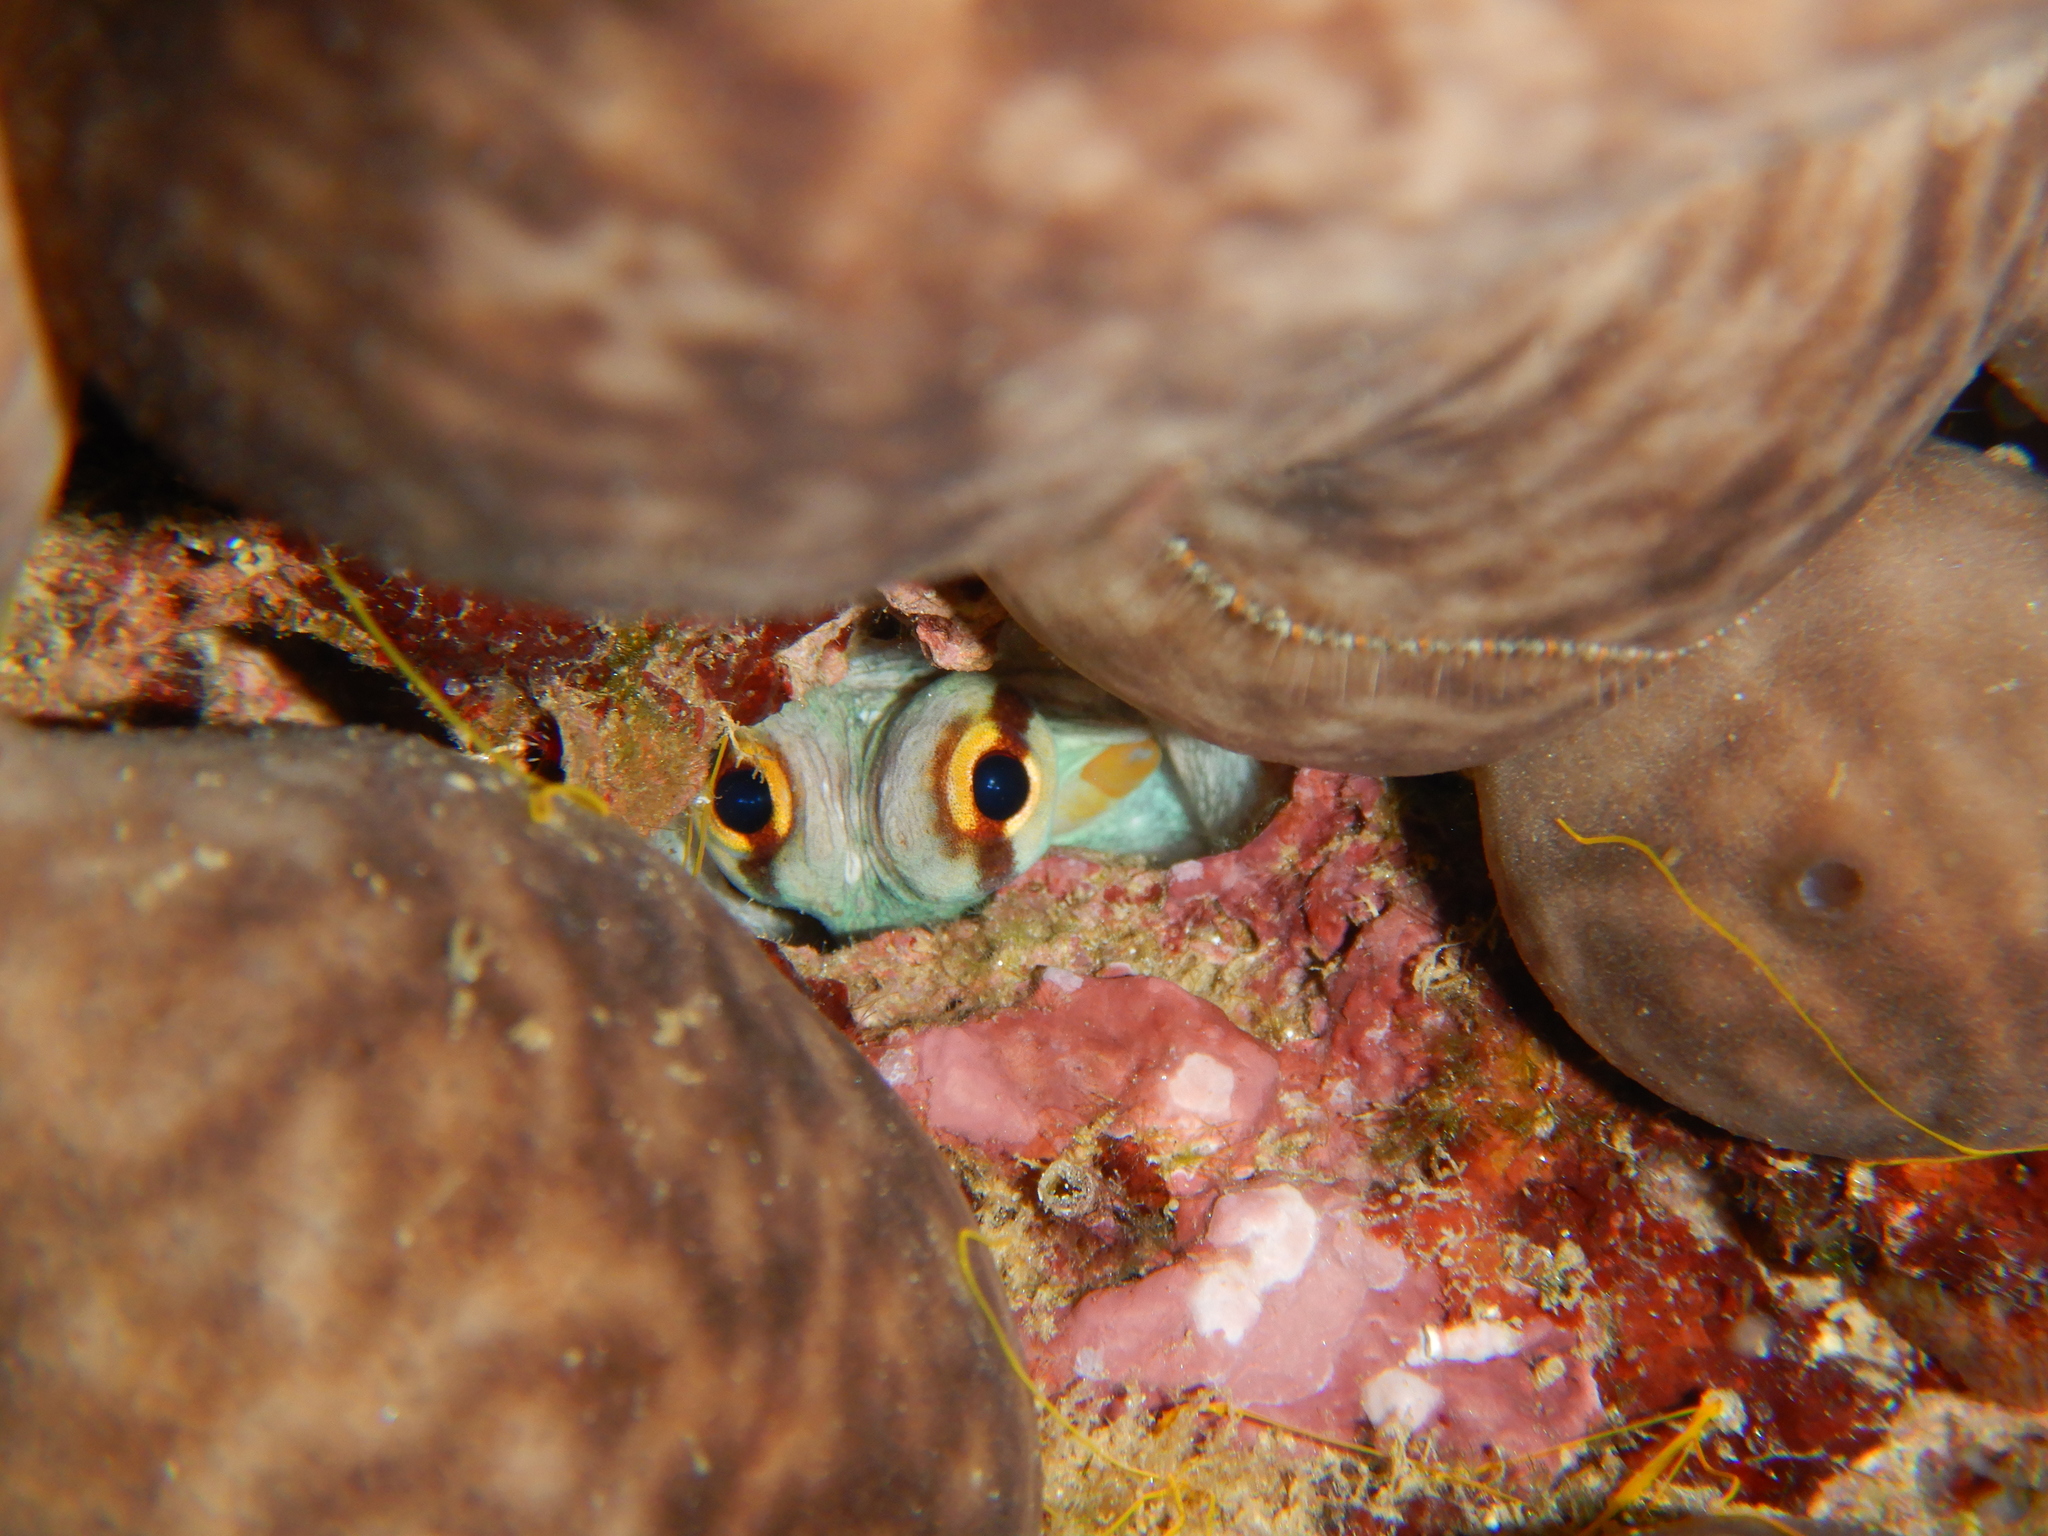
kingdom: Animalia
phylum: Mollusca
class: Cephalopoda
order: Octopoda
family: Octopodidae
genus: Octopus
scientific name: Octopus vulgaris
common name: Common octopus
